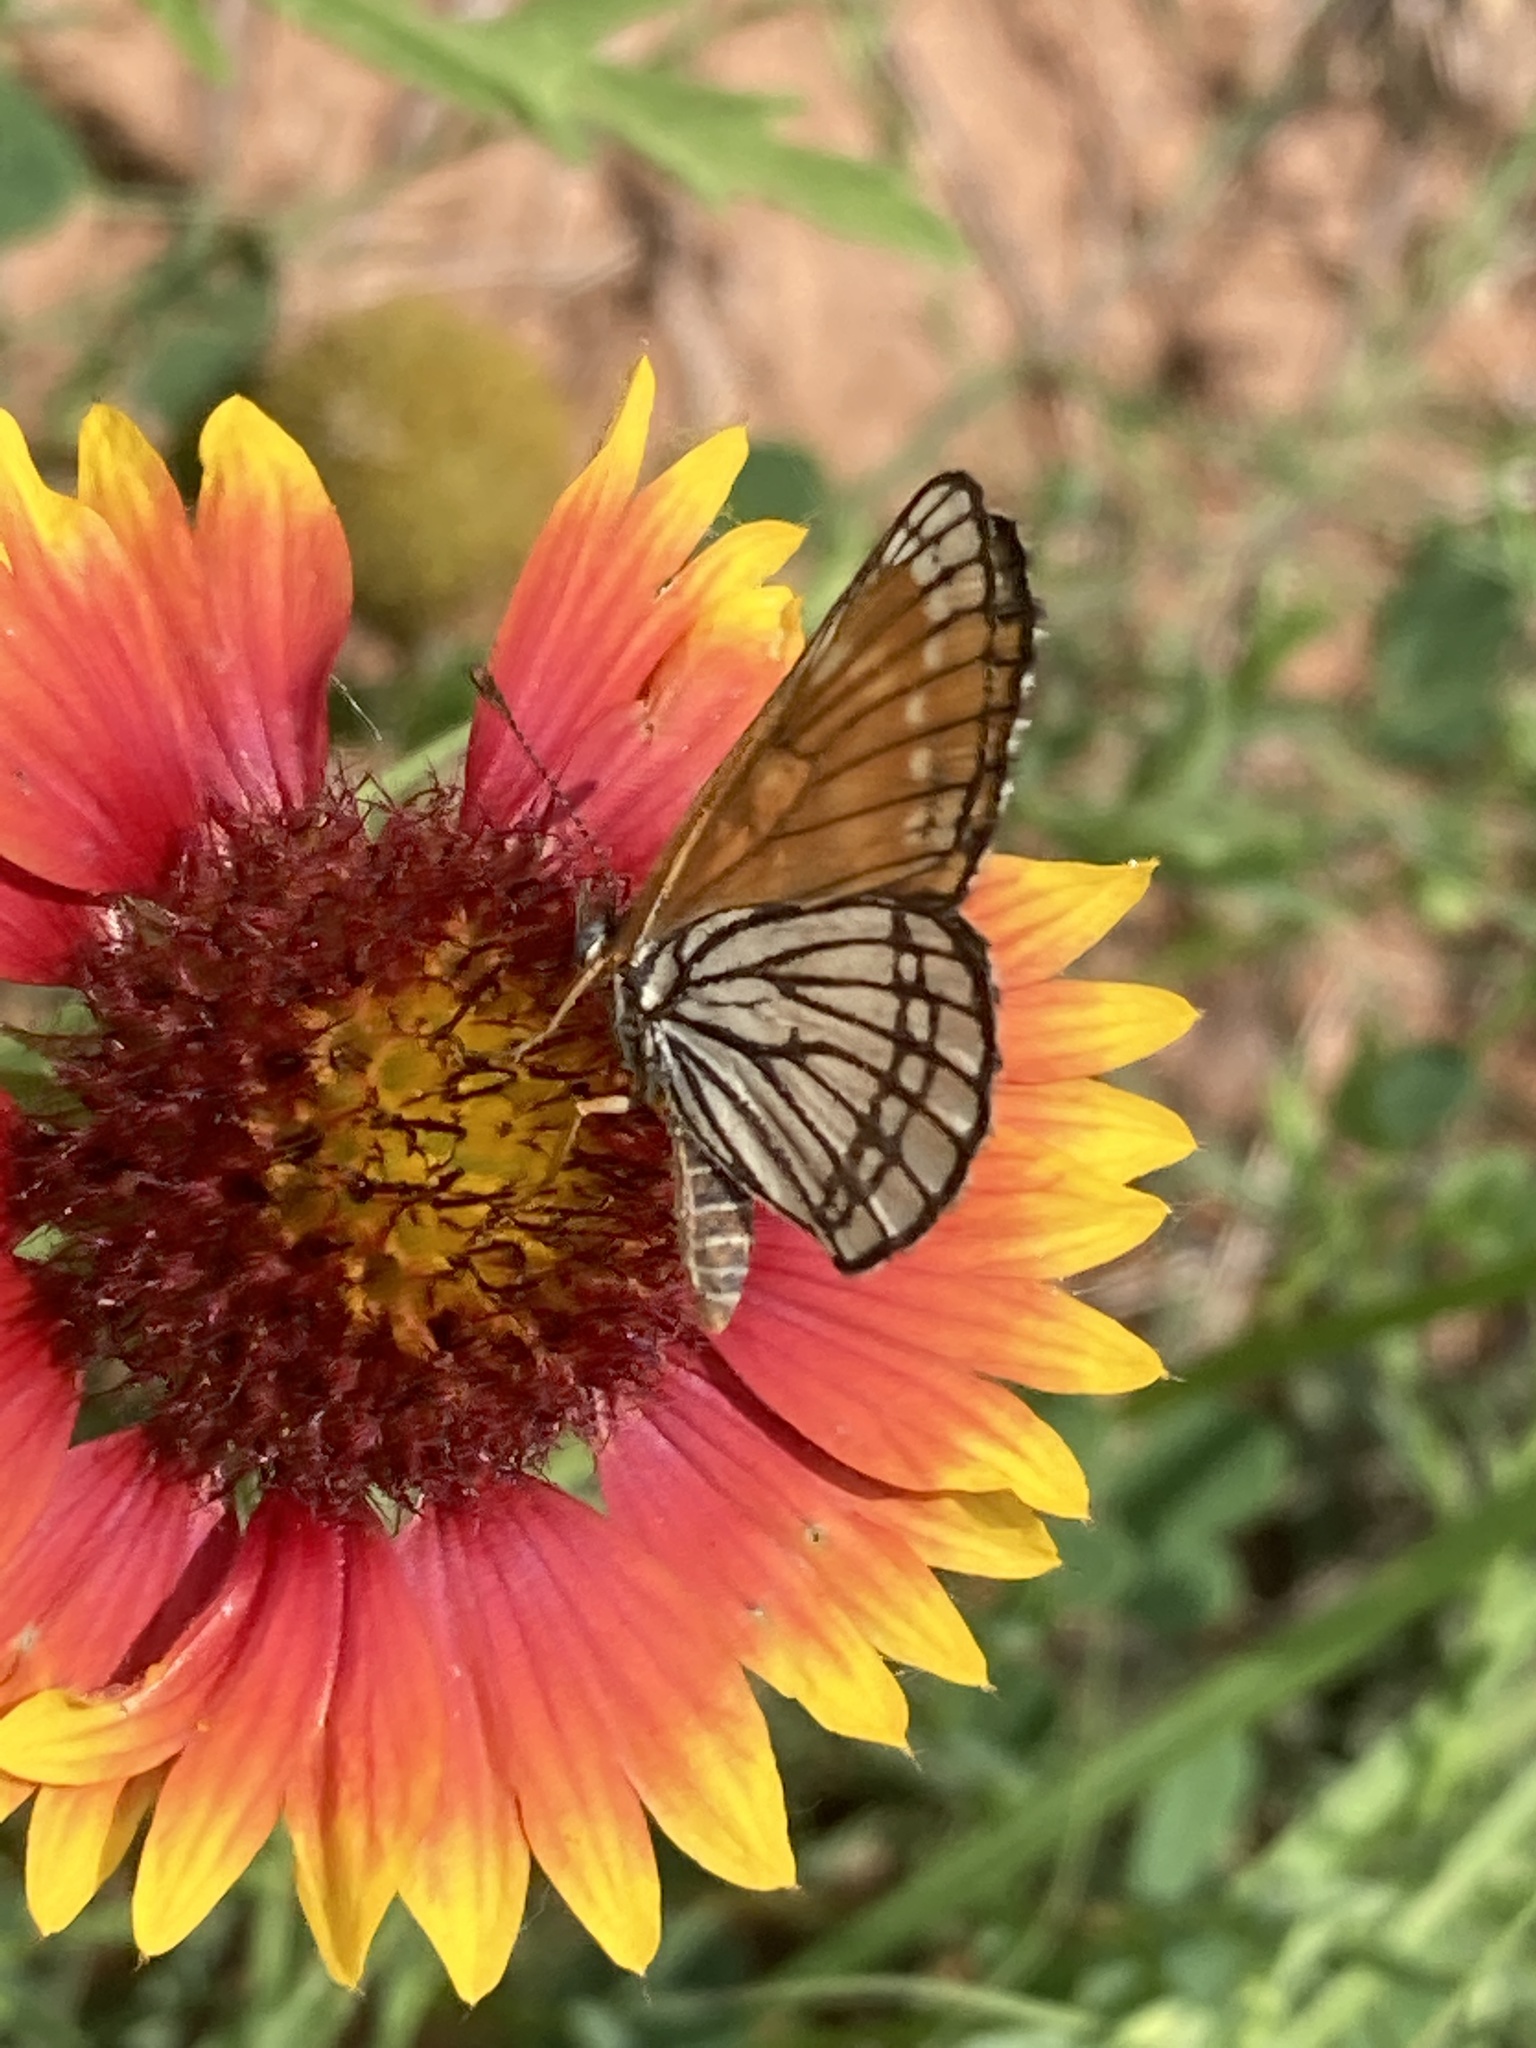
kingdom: Animalia
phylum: Arthropoda
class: Insecta
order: Lepidoptera
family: Nymphalidae
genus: Thessalia
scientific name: Thessalia leanira
